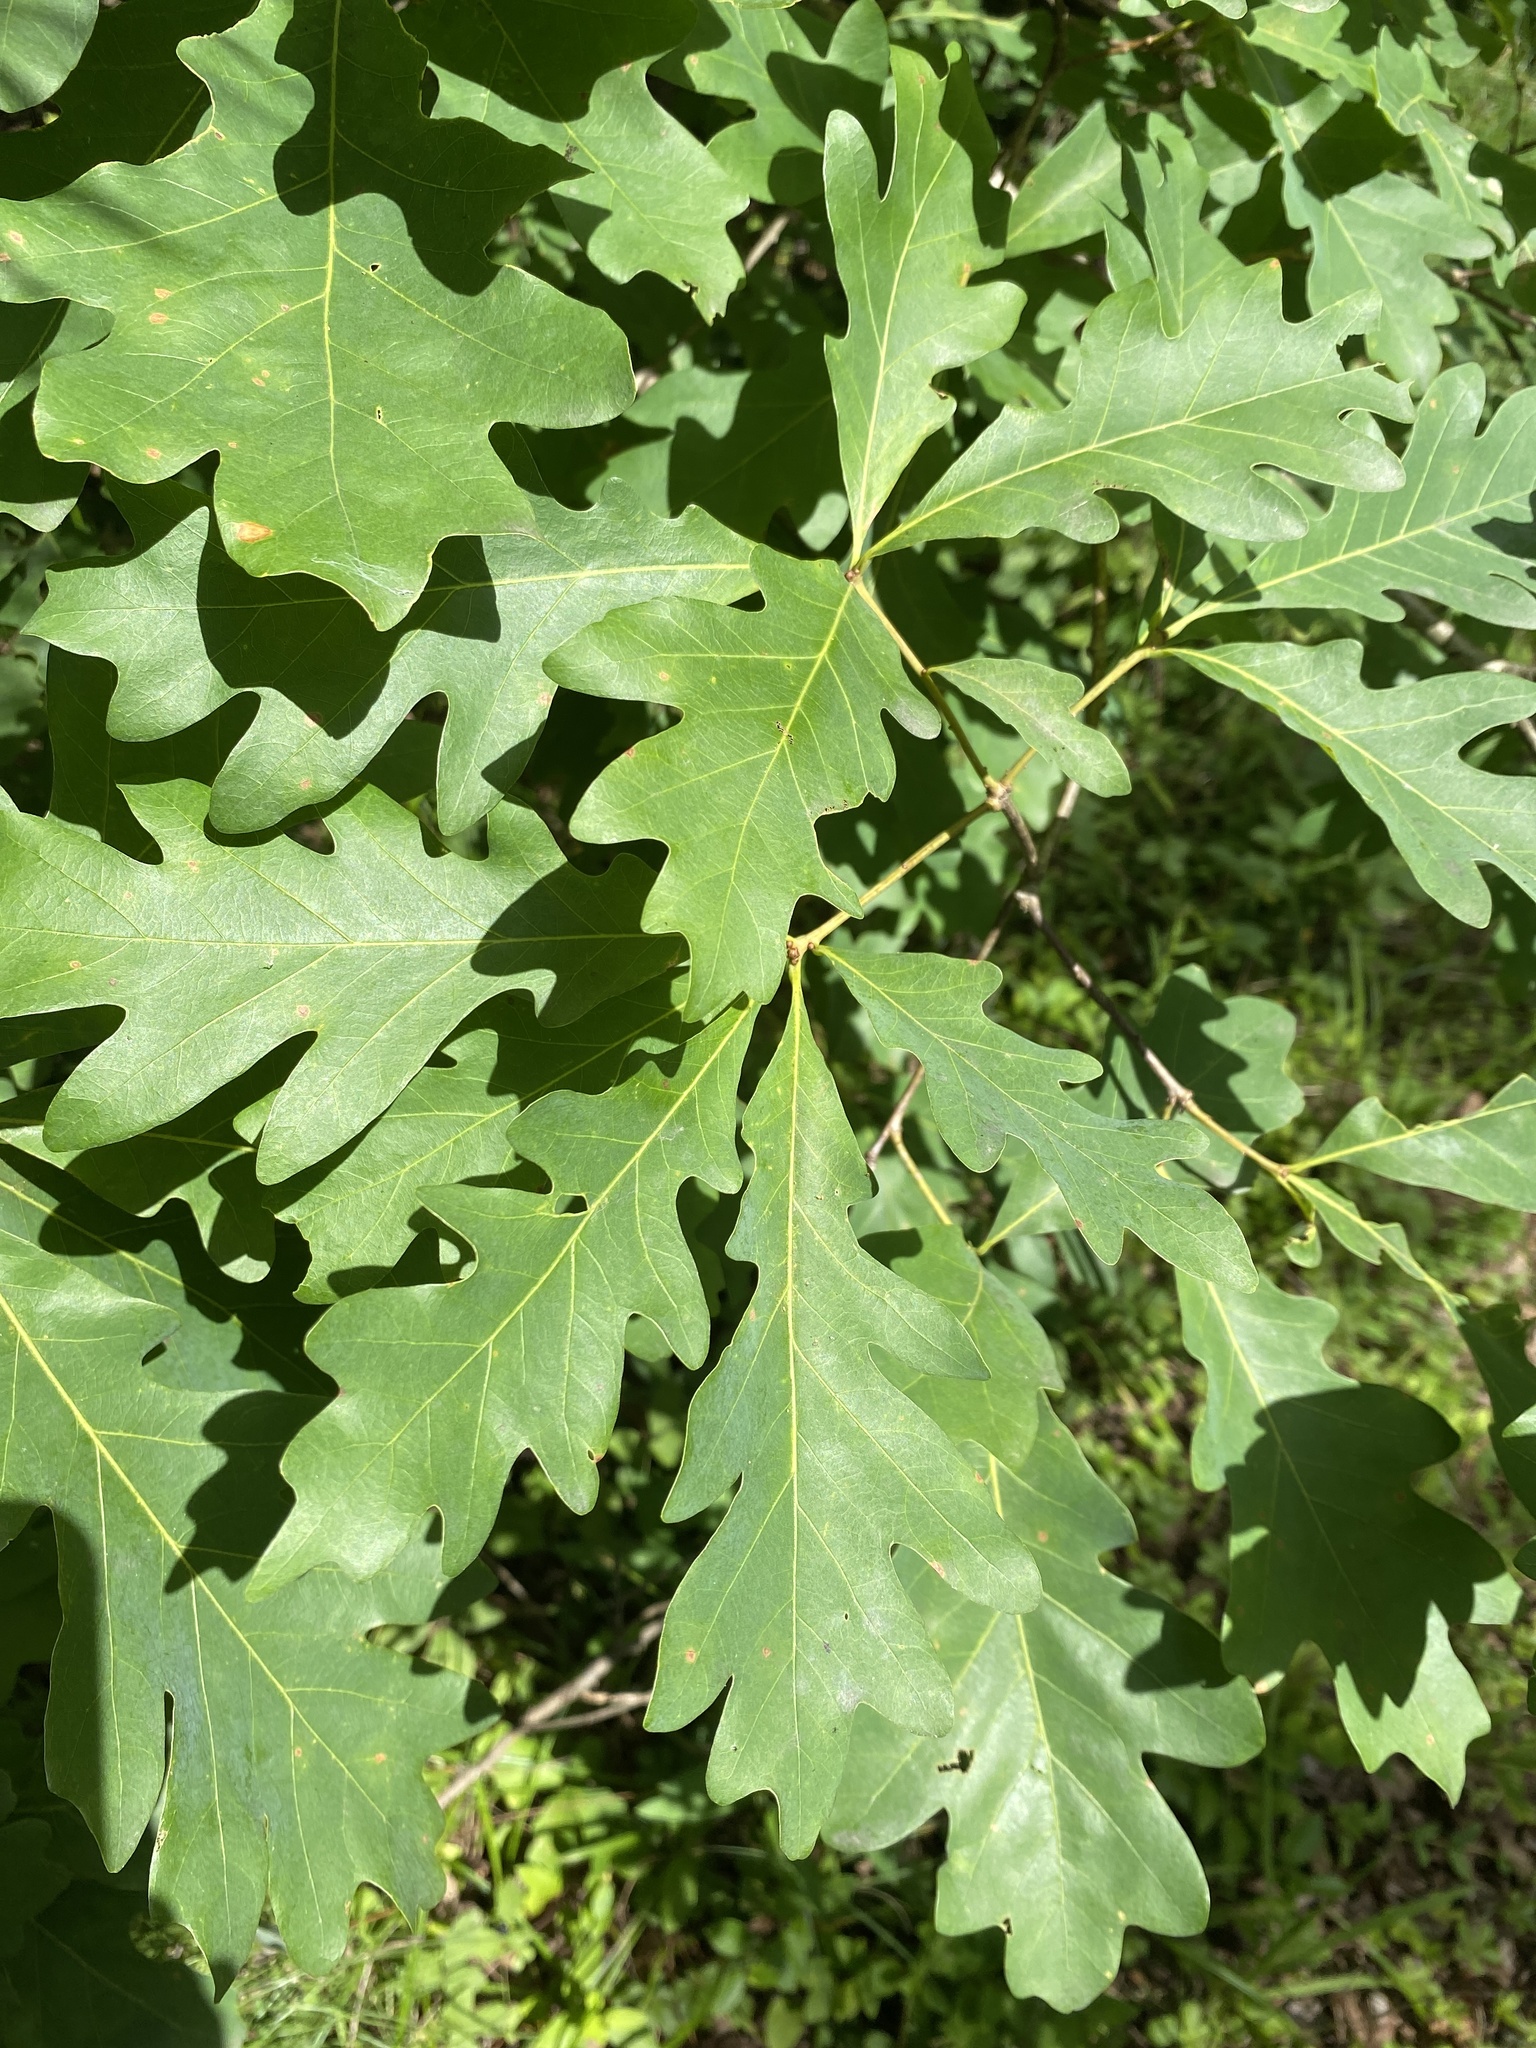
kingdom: Plantae
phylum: Tracheophyta
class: Magnoliopsida
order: Fagales
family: Fagaceae
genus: Quercus
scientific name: Quercus alba
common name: White oak
